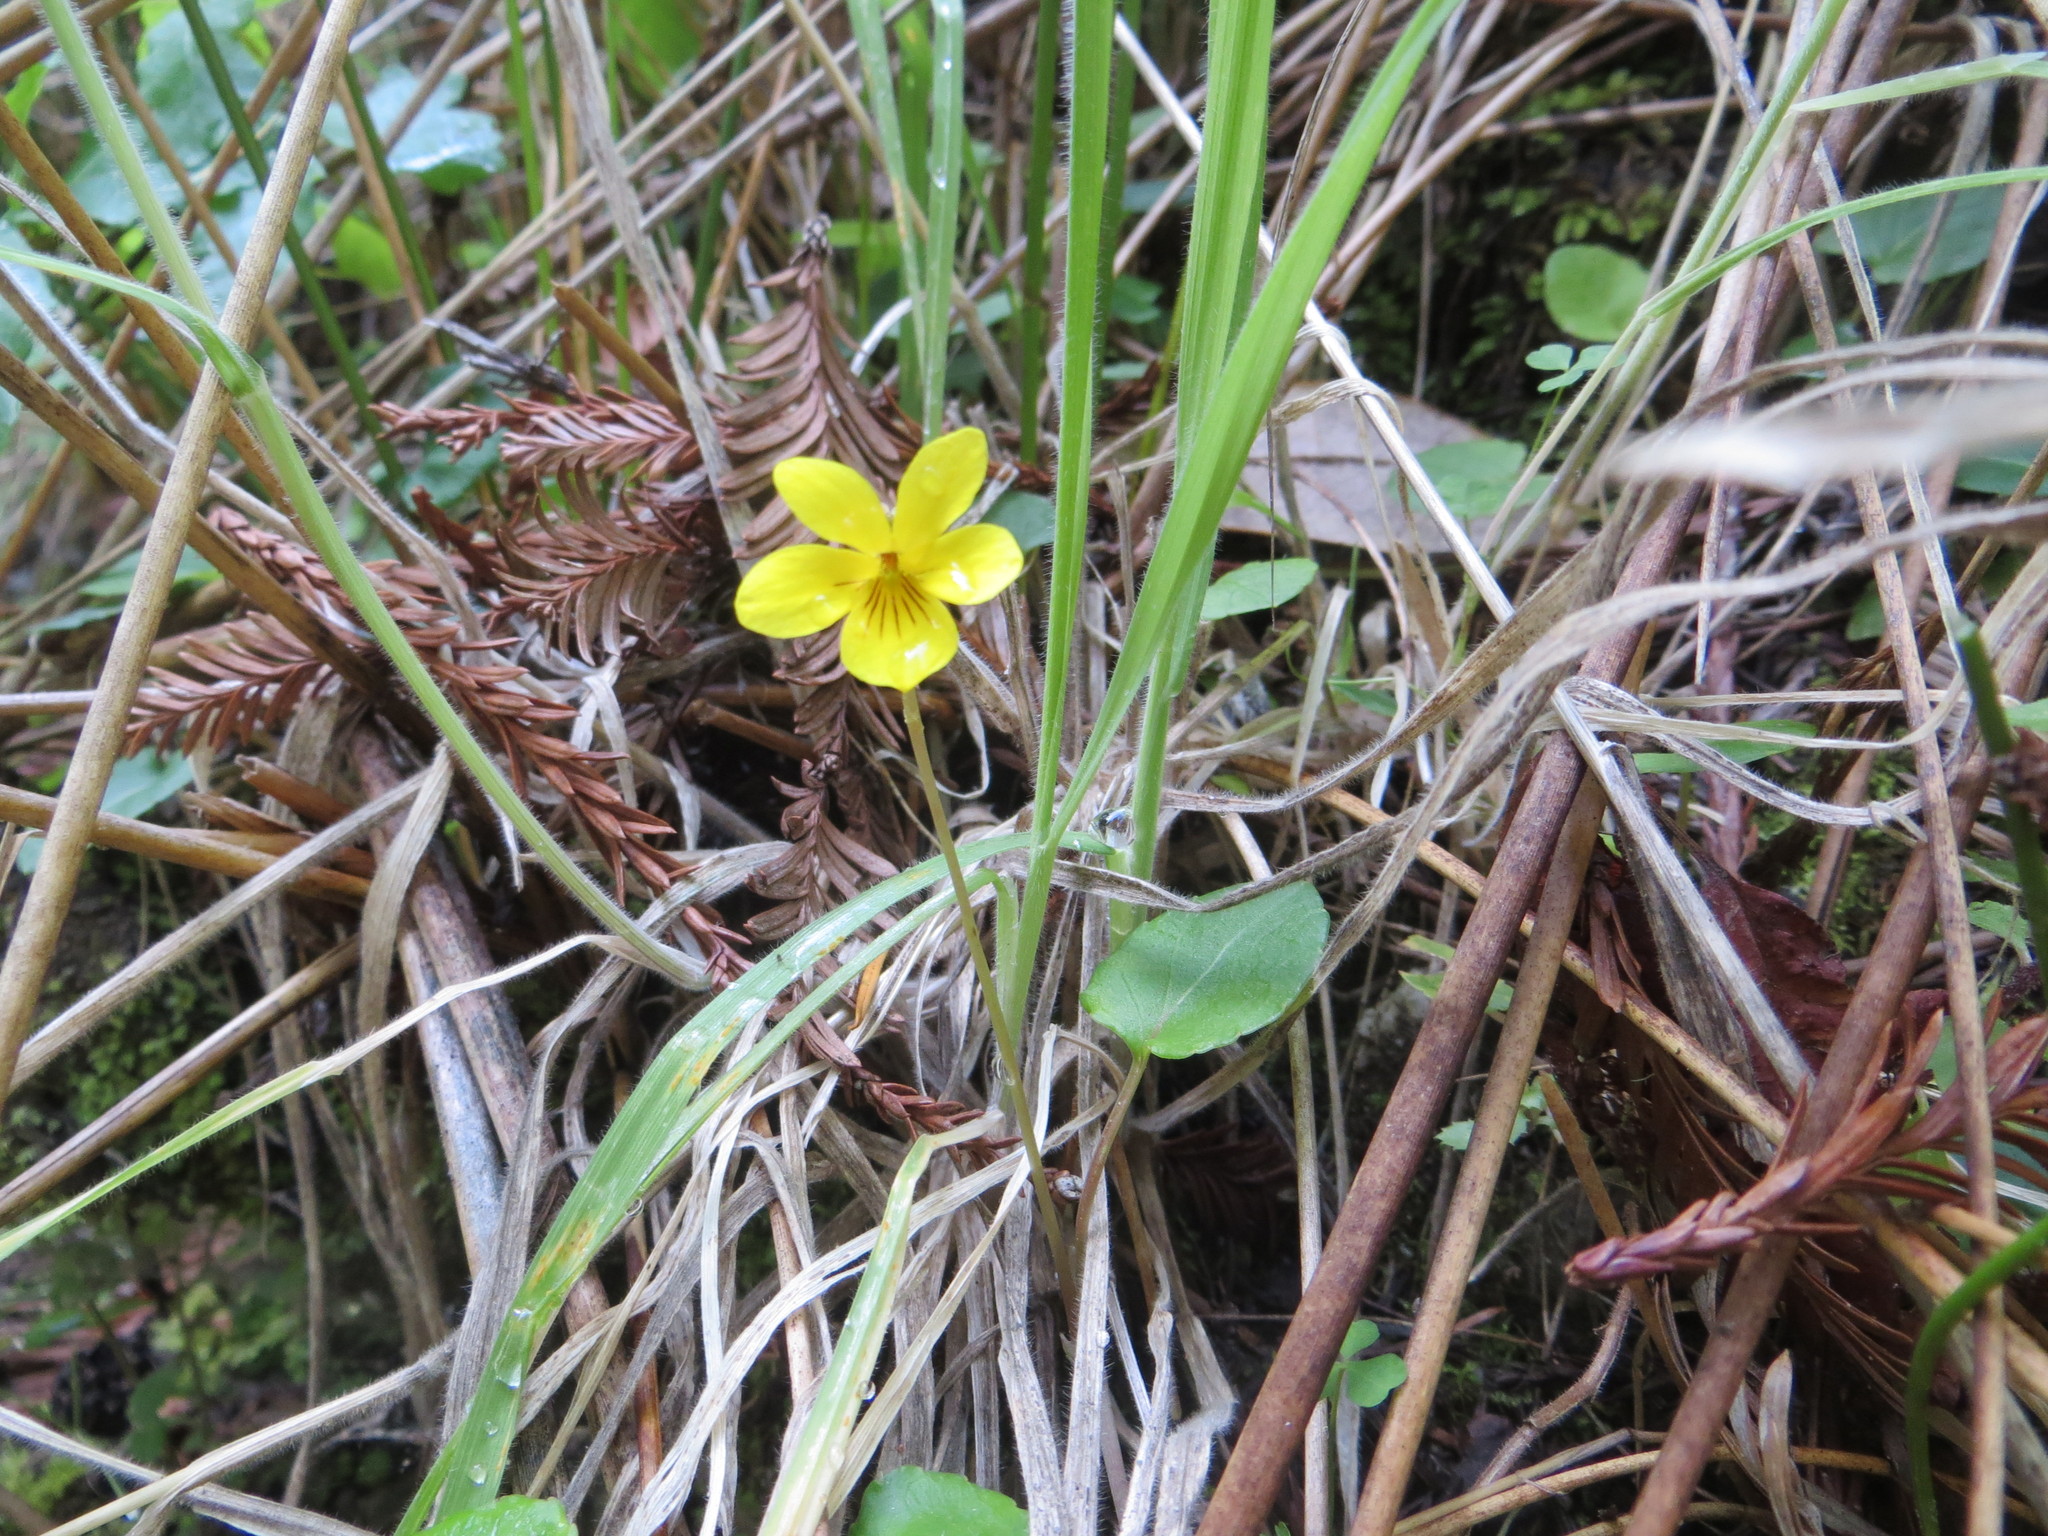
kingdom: Plantae
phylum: Tracheophyta
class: Magnoliopsida
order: Malpighiales
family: Violaceae
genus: Viola
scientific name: Viola sempervirens
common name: Evergreen violet
